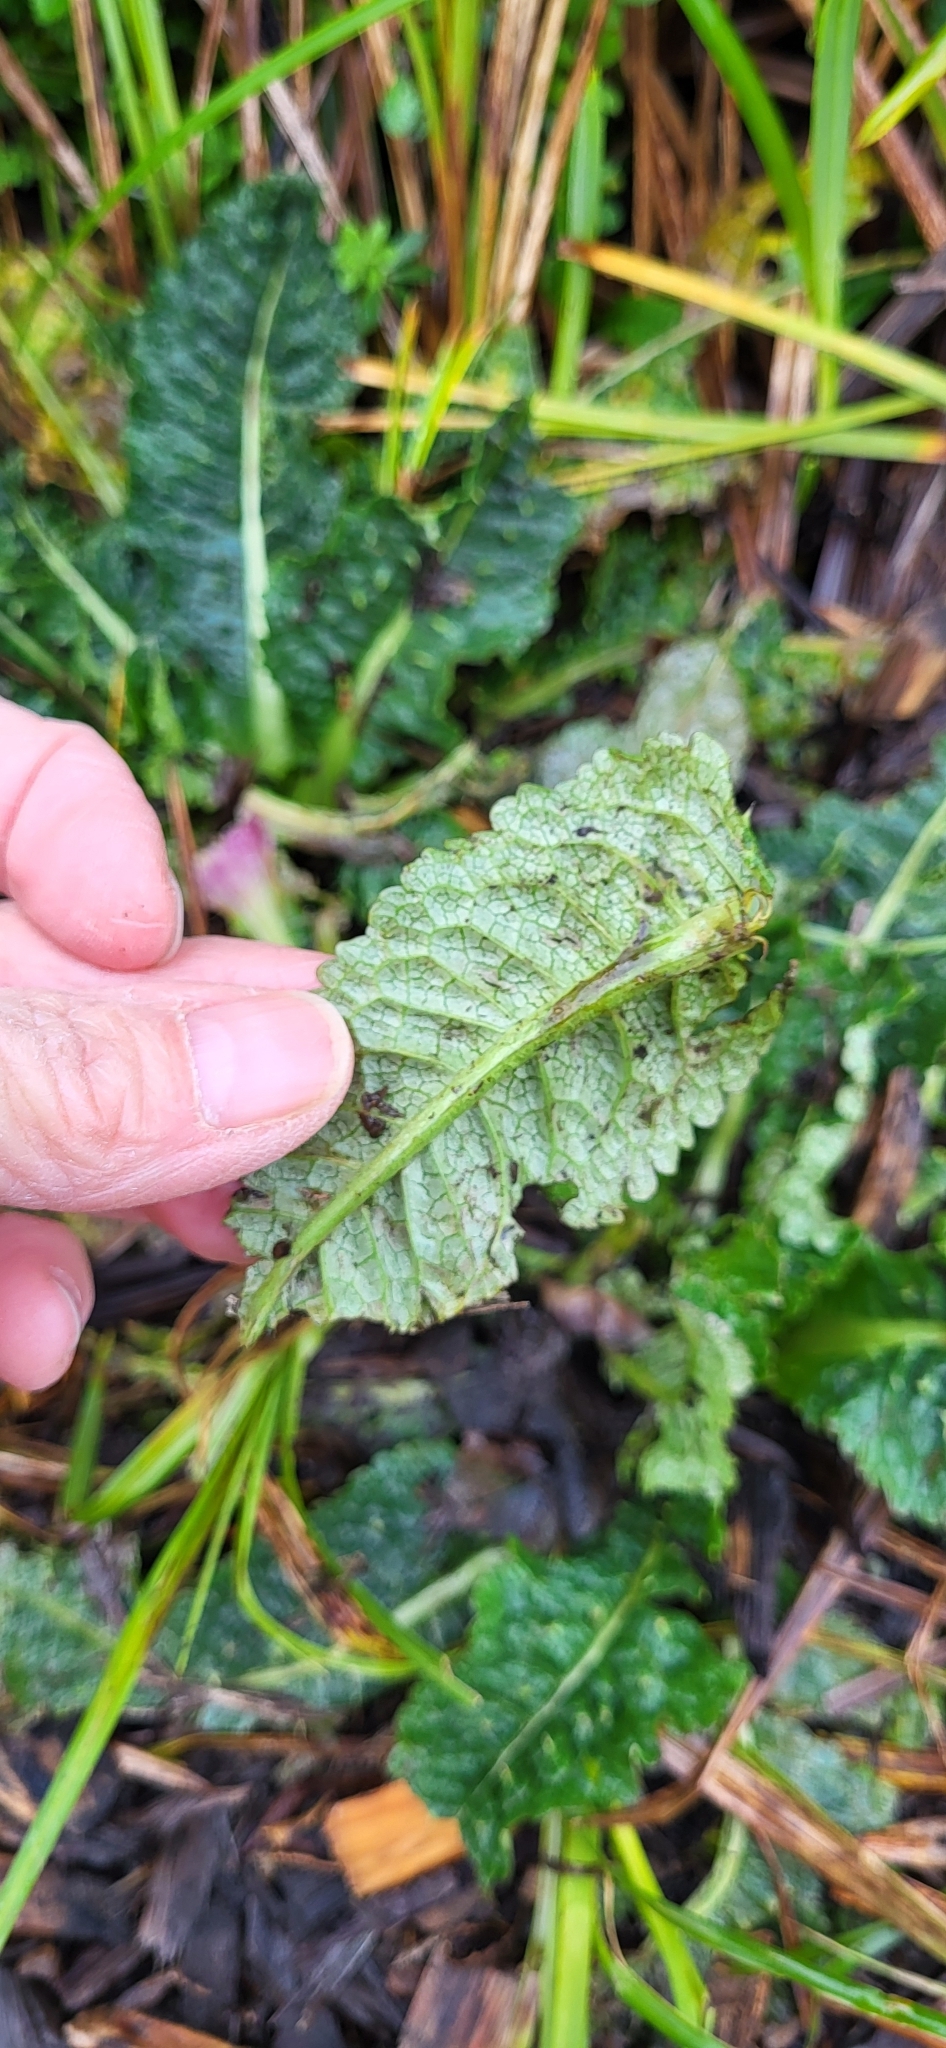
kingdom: Plantae
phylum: Tracheophyta
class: Magnoliopsida
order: Dipsacales
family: Caprifoliaceae
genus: Dipsacus
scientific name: Dipsacus fullonum
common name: Teasel
